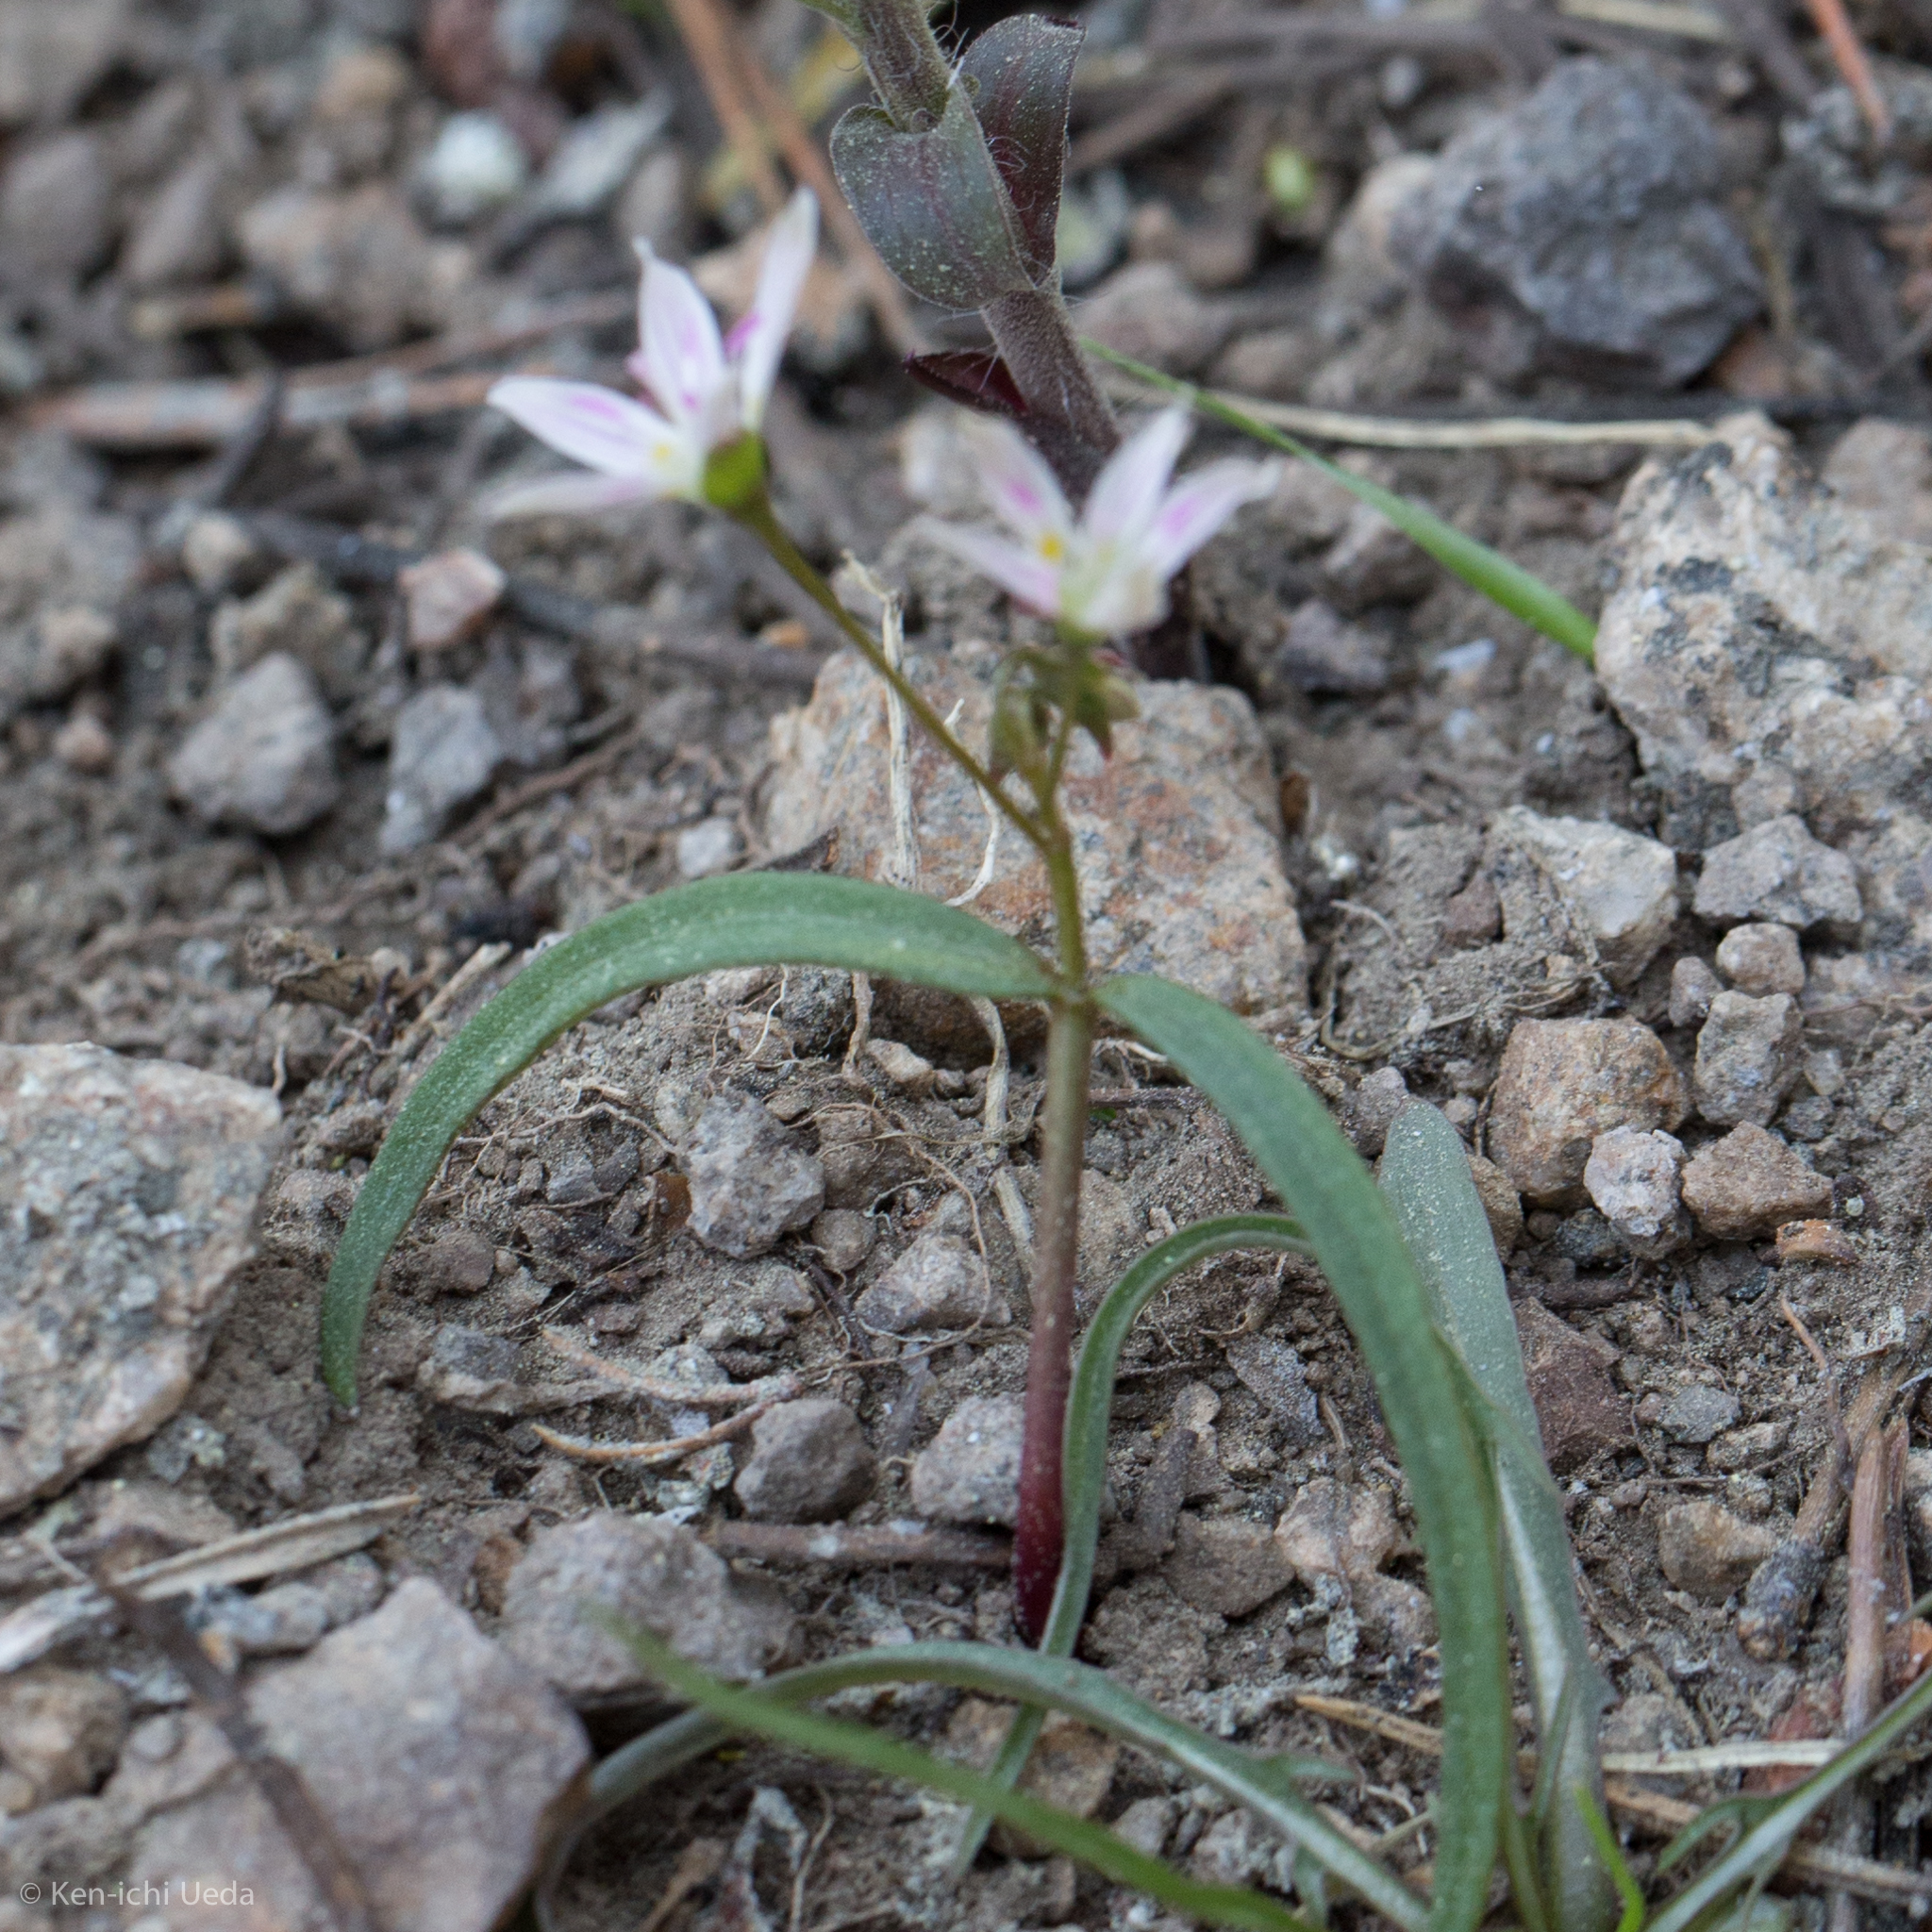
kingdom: Plantae
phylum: Tracheophyta
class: Magnoliopsida
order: Caryophyllales
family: Montiaceae
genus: Claytonia
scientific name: Claytonia lanceolata
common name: Western spring-beauty
